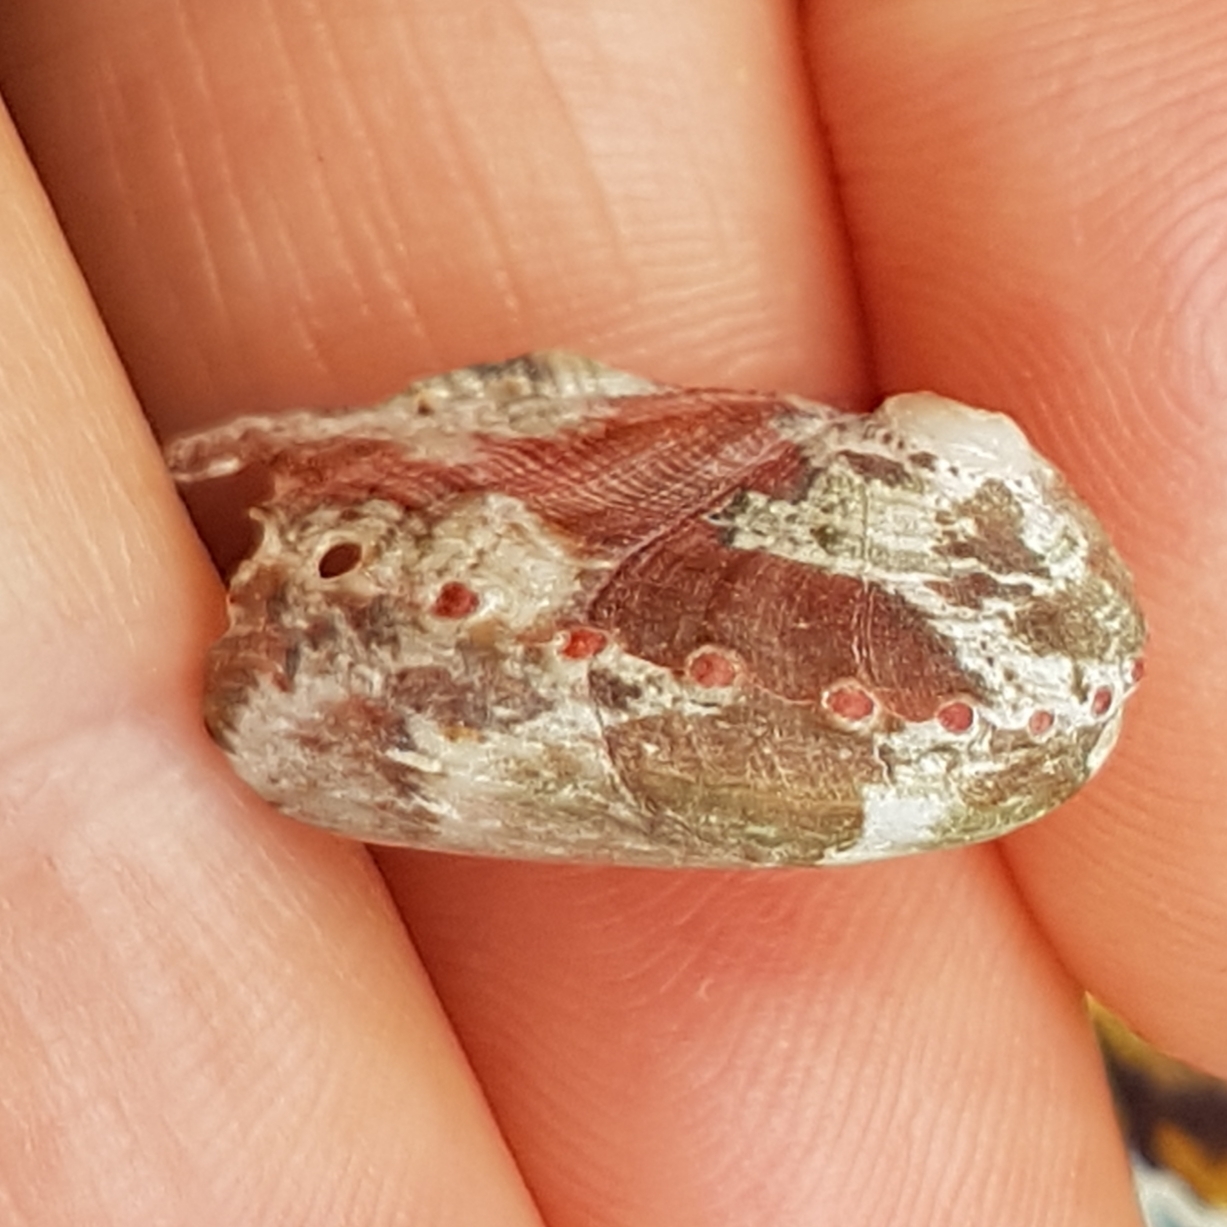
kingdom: Animalia
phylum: Mollusca
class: Gastropoda
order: Lepetellida
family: Haliotidae
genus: Haliotis
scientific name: Haliotis tuberculata
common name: Green ormer
